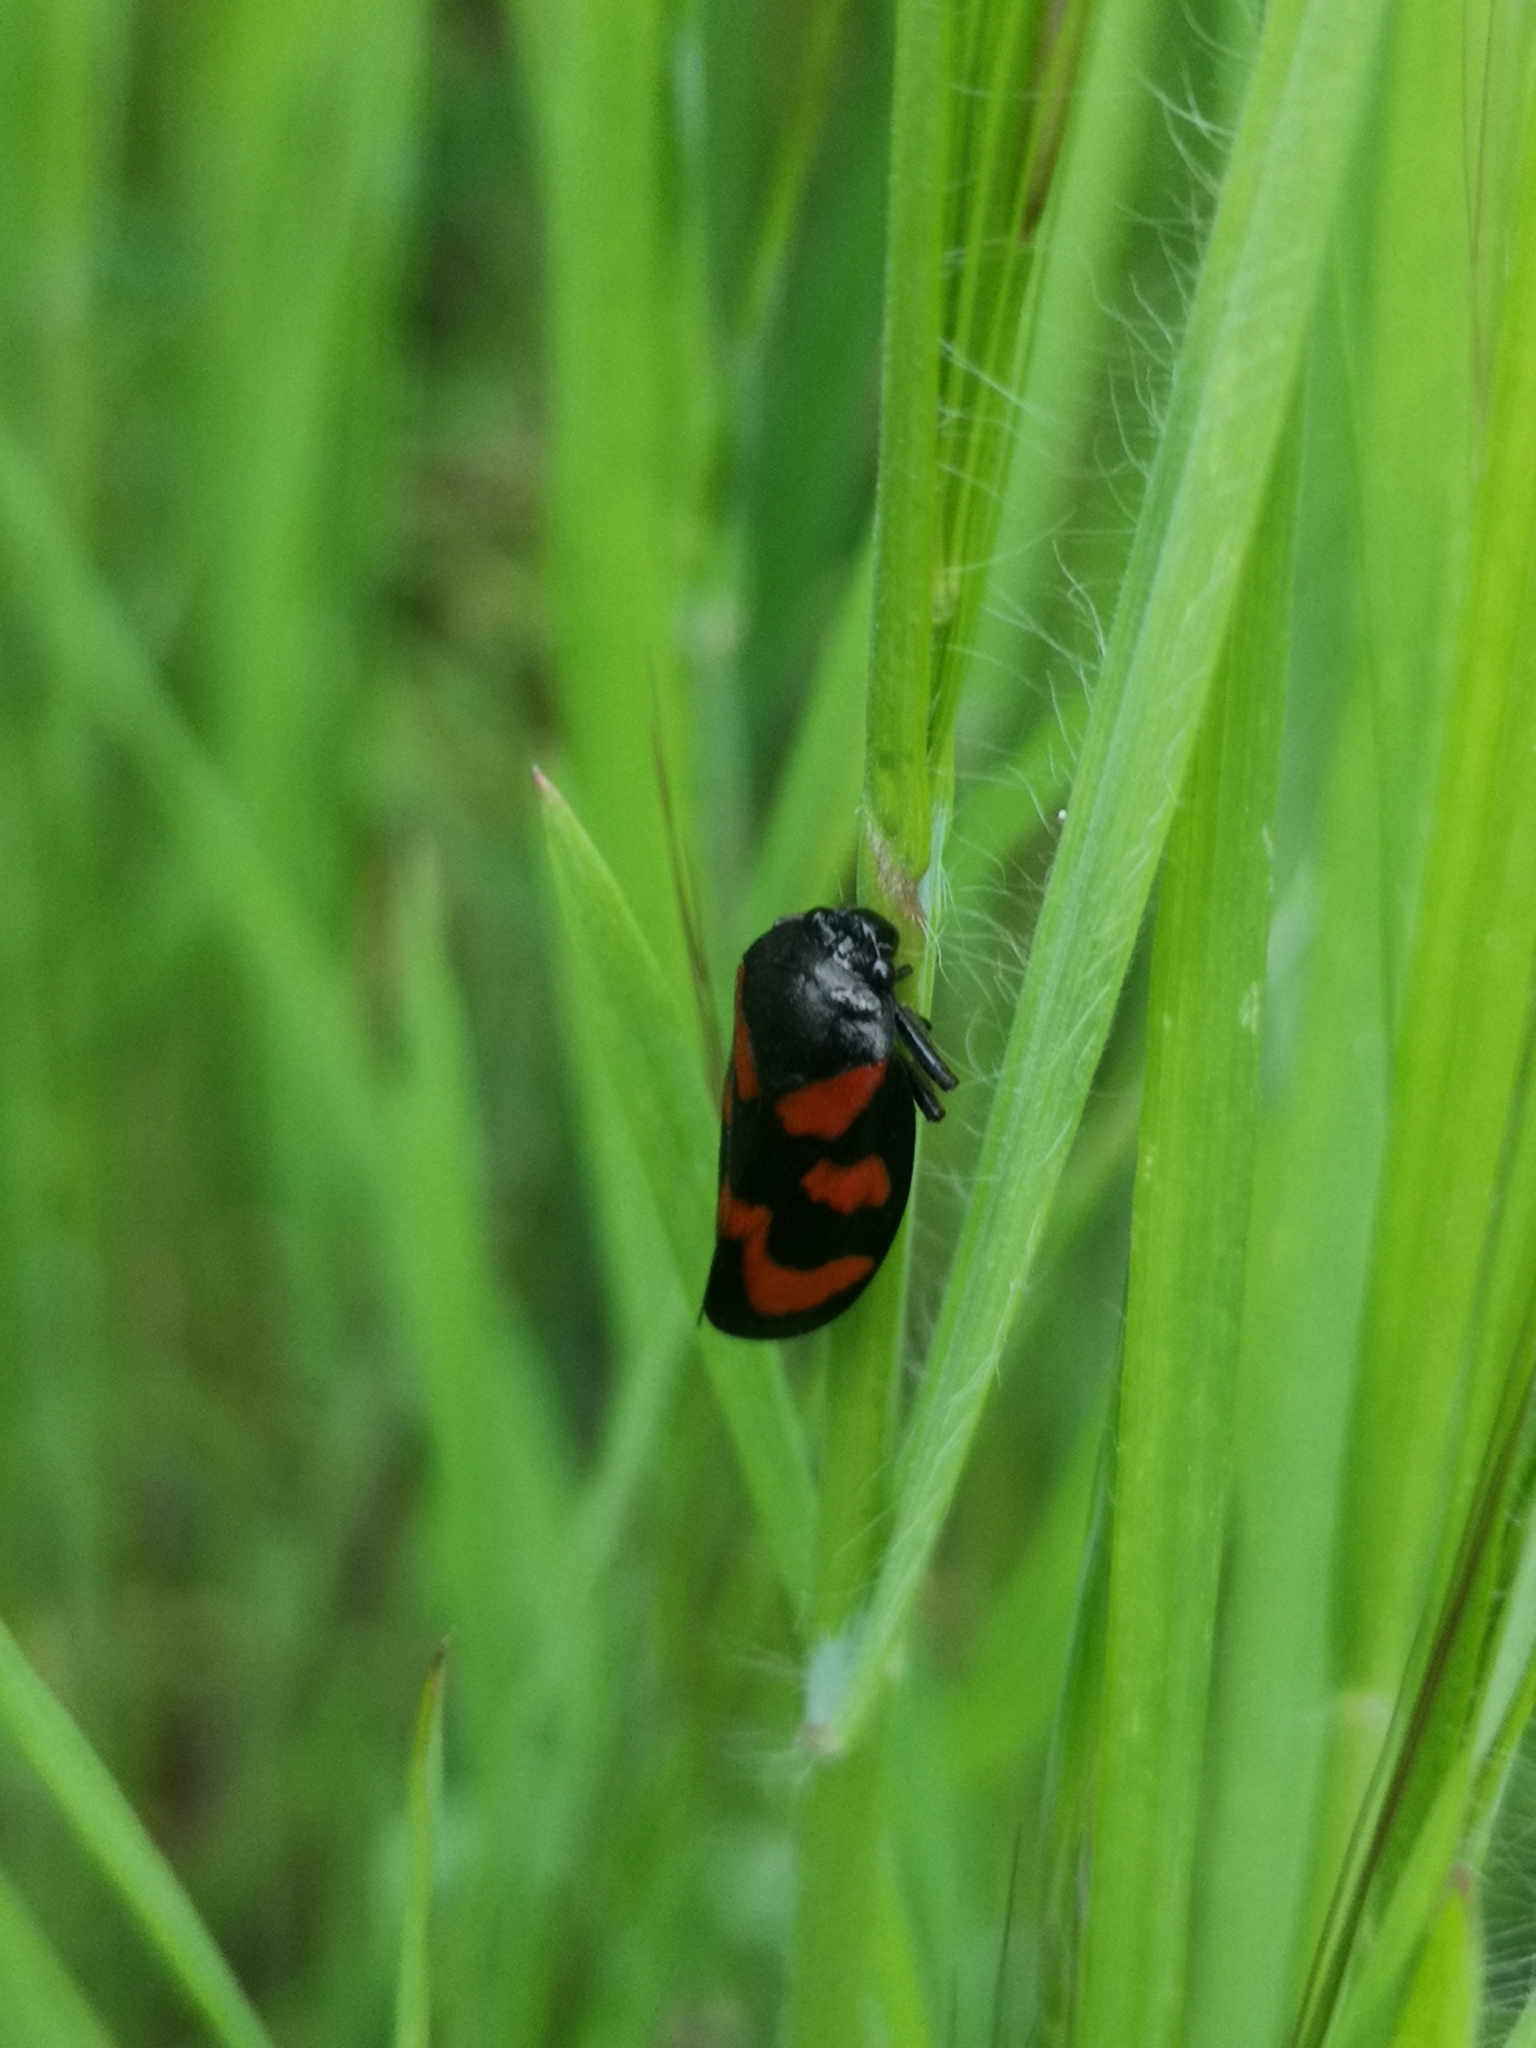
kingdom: Animalia
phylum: Arthropoda
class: Insecta
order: Hemiptera
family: Cercopidae
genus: Cercopis
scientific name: Cercopis vulnerata
